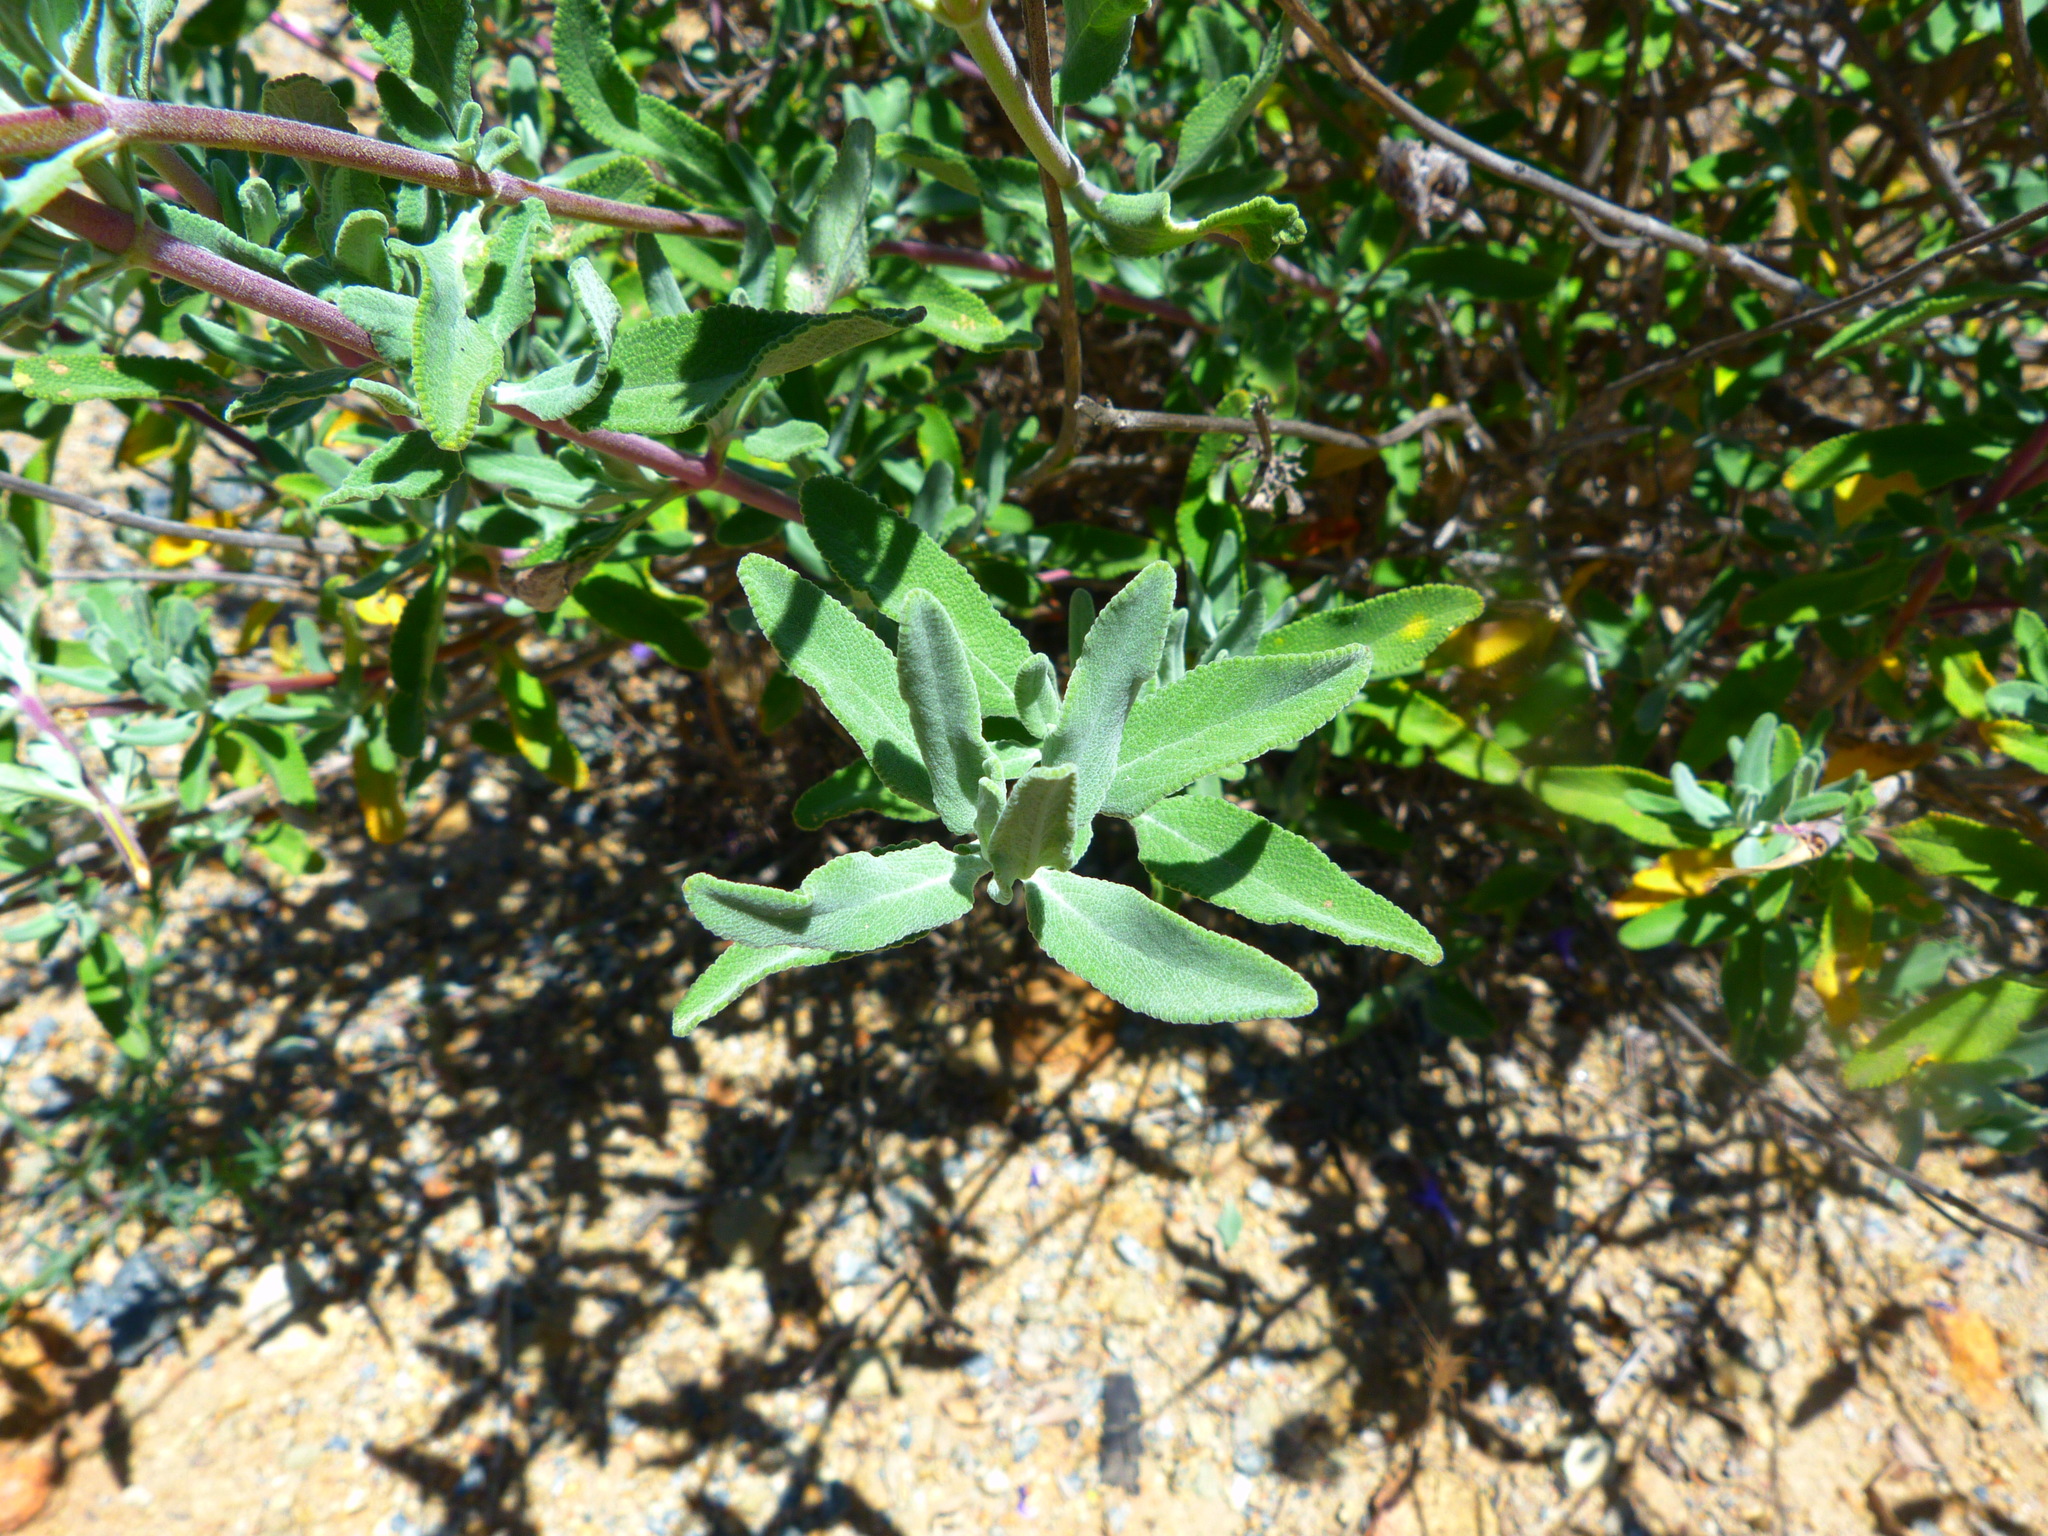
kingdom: Plantae
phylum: Tracheophyta
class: Magnoliopsida
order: Lamiales
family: Lamiaceae
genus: Salvia
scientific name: Salvia clevelandii
